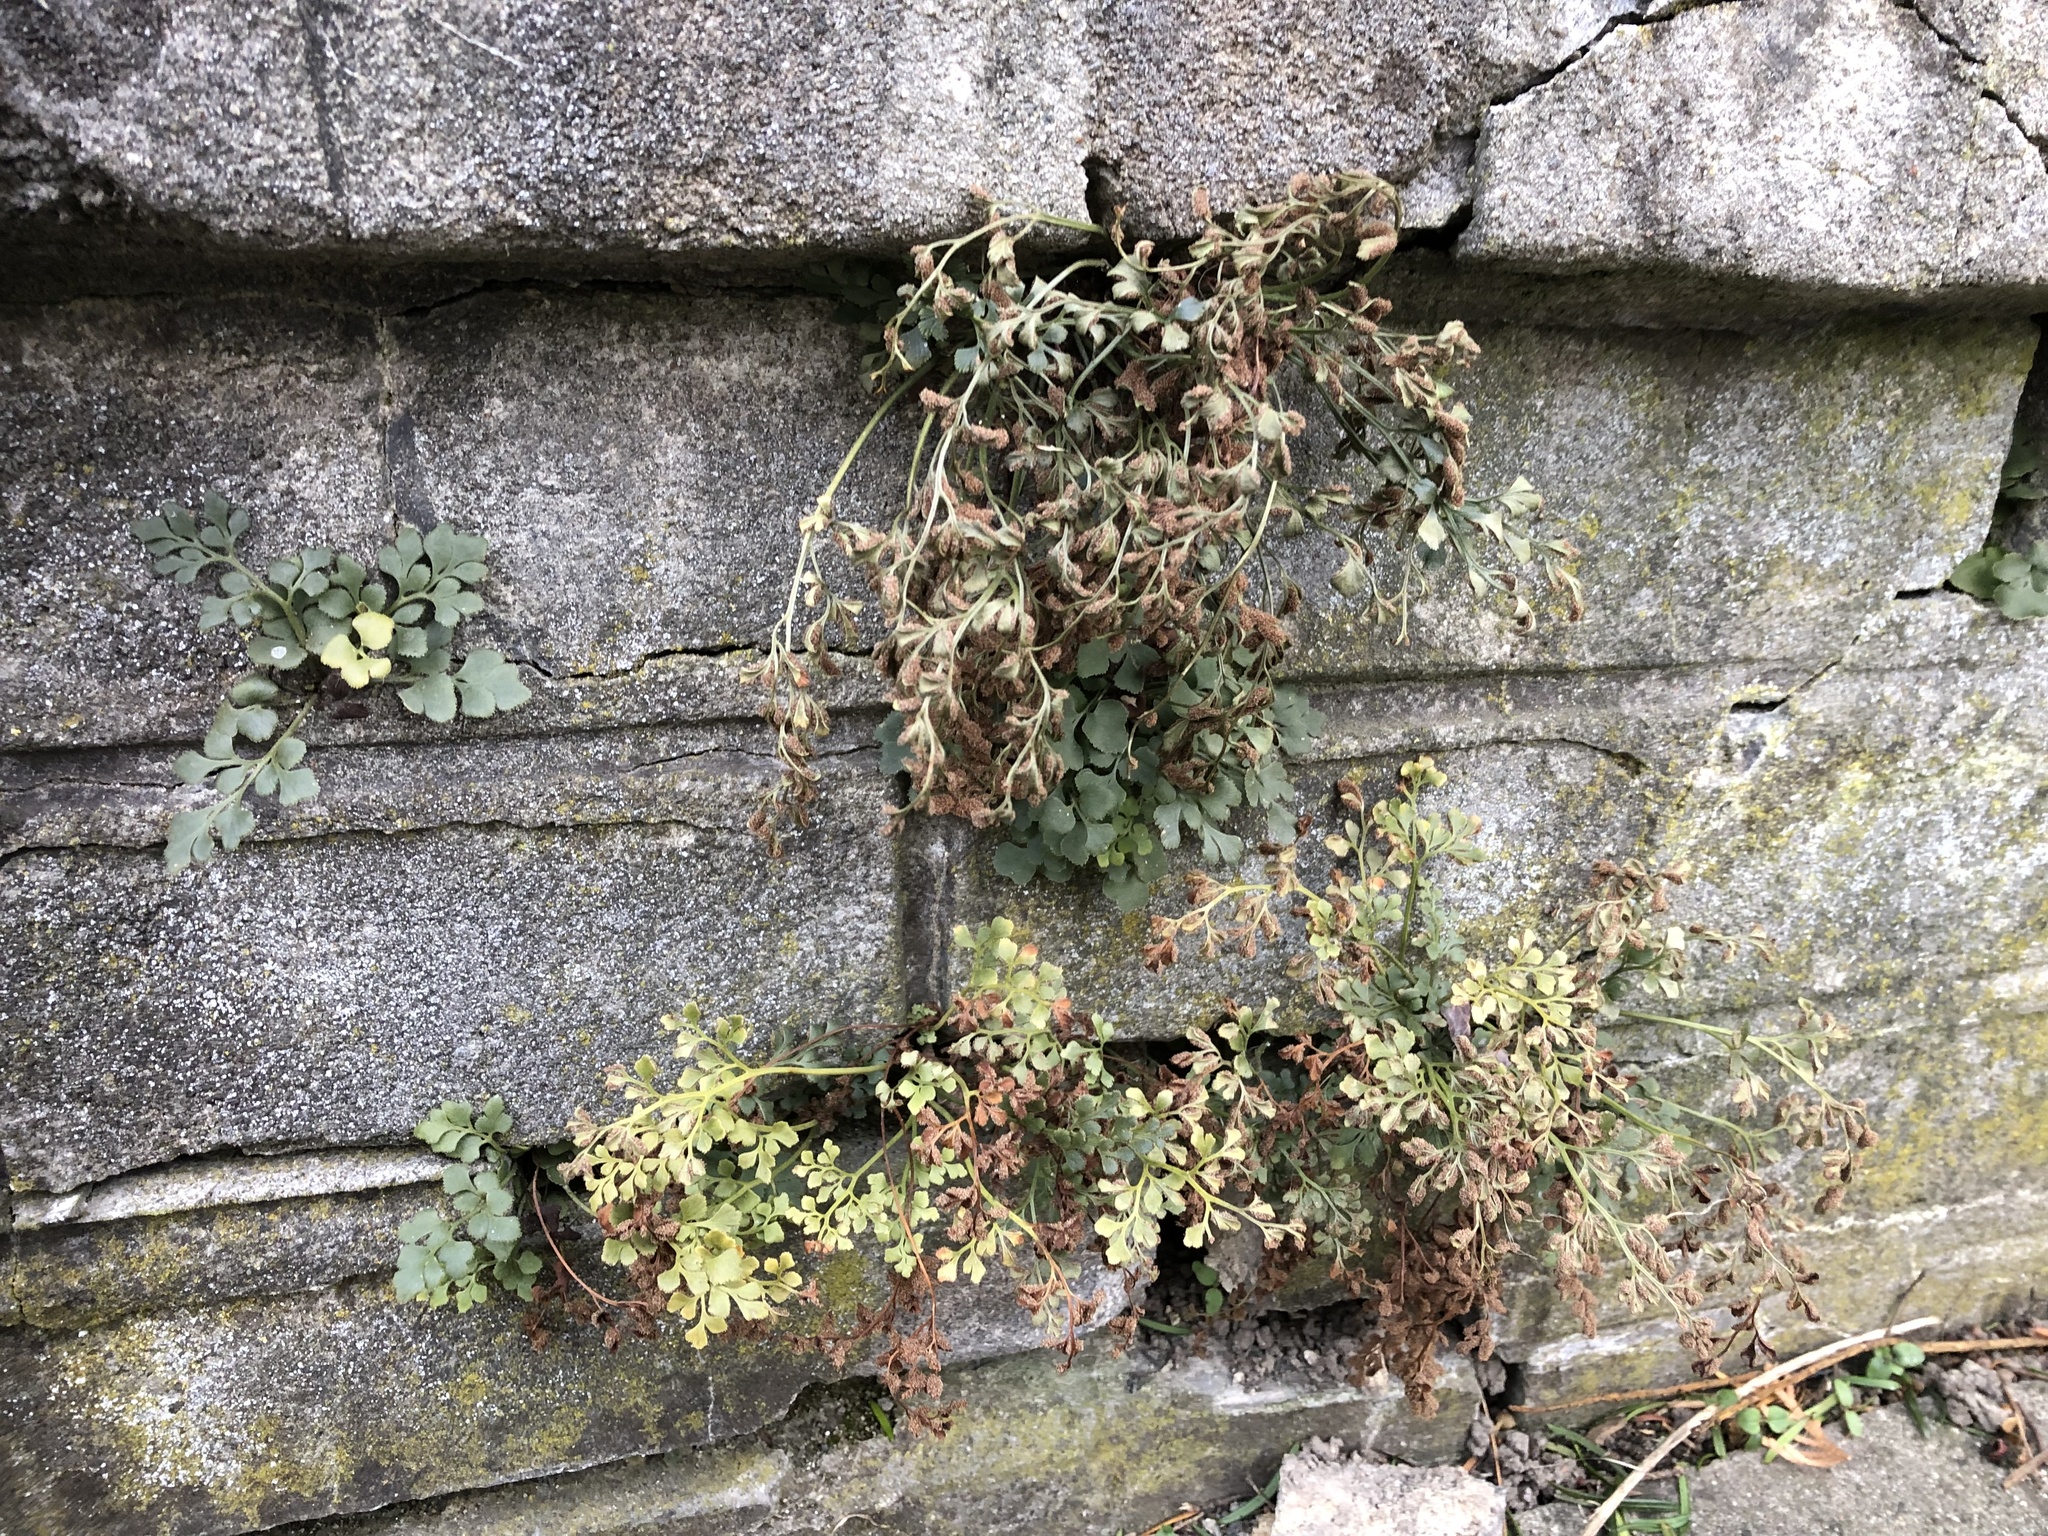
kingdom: Plantae
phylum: Tracheophyta
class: Polypodiopsida
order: Polypodiales
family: Aspleniaceae
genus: Asplenium
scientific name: Asplenium ruta-muraria
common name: Wall-rue
